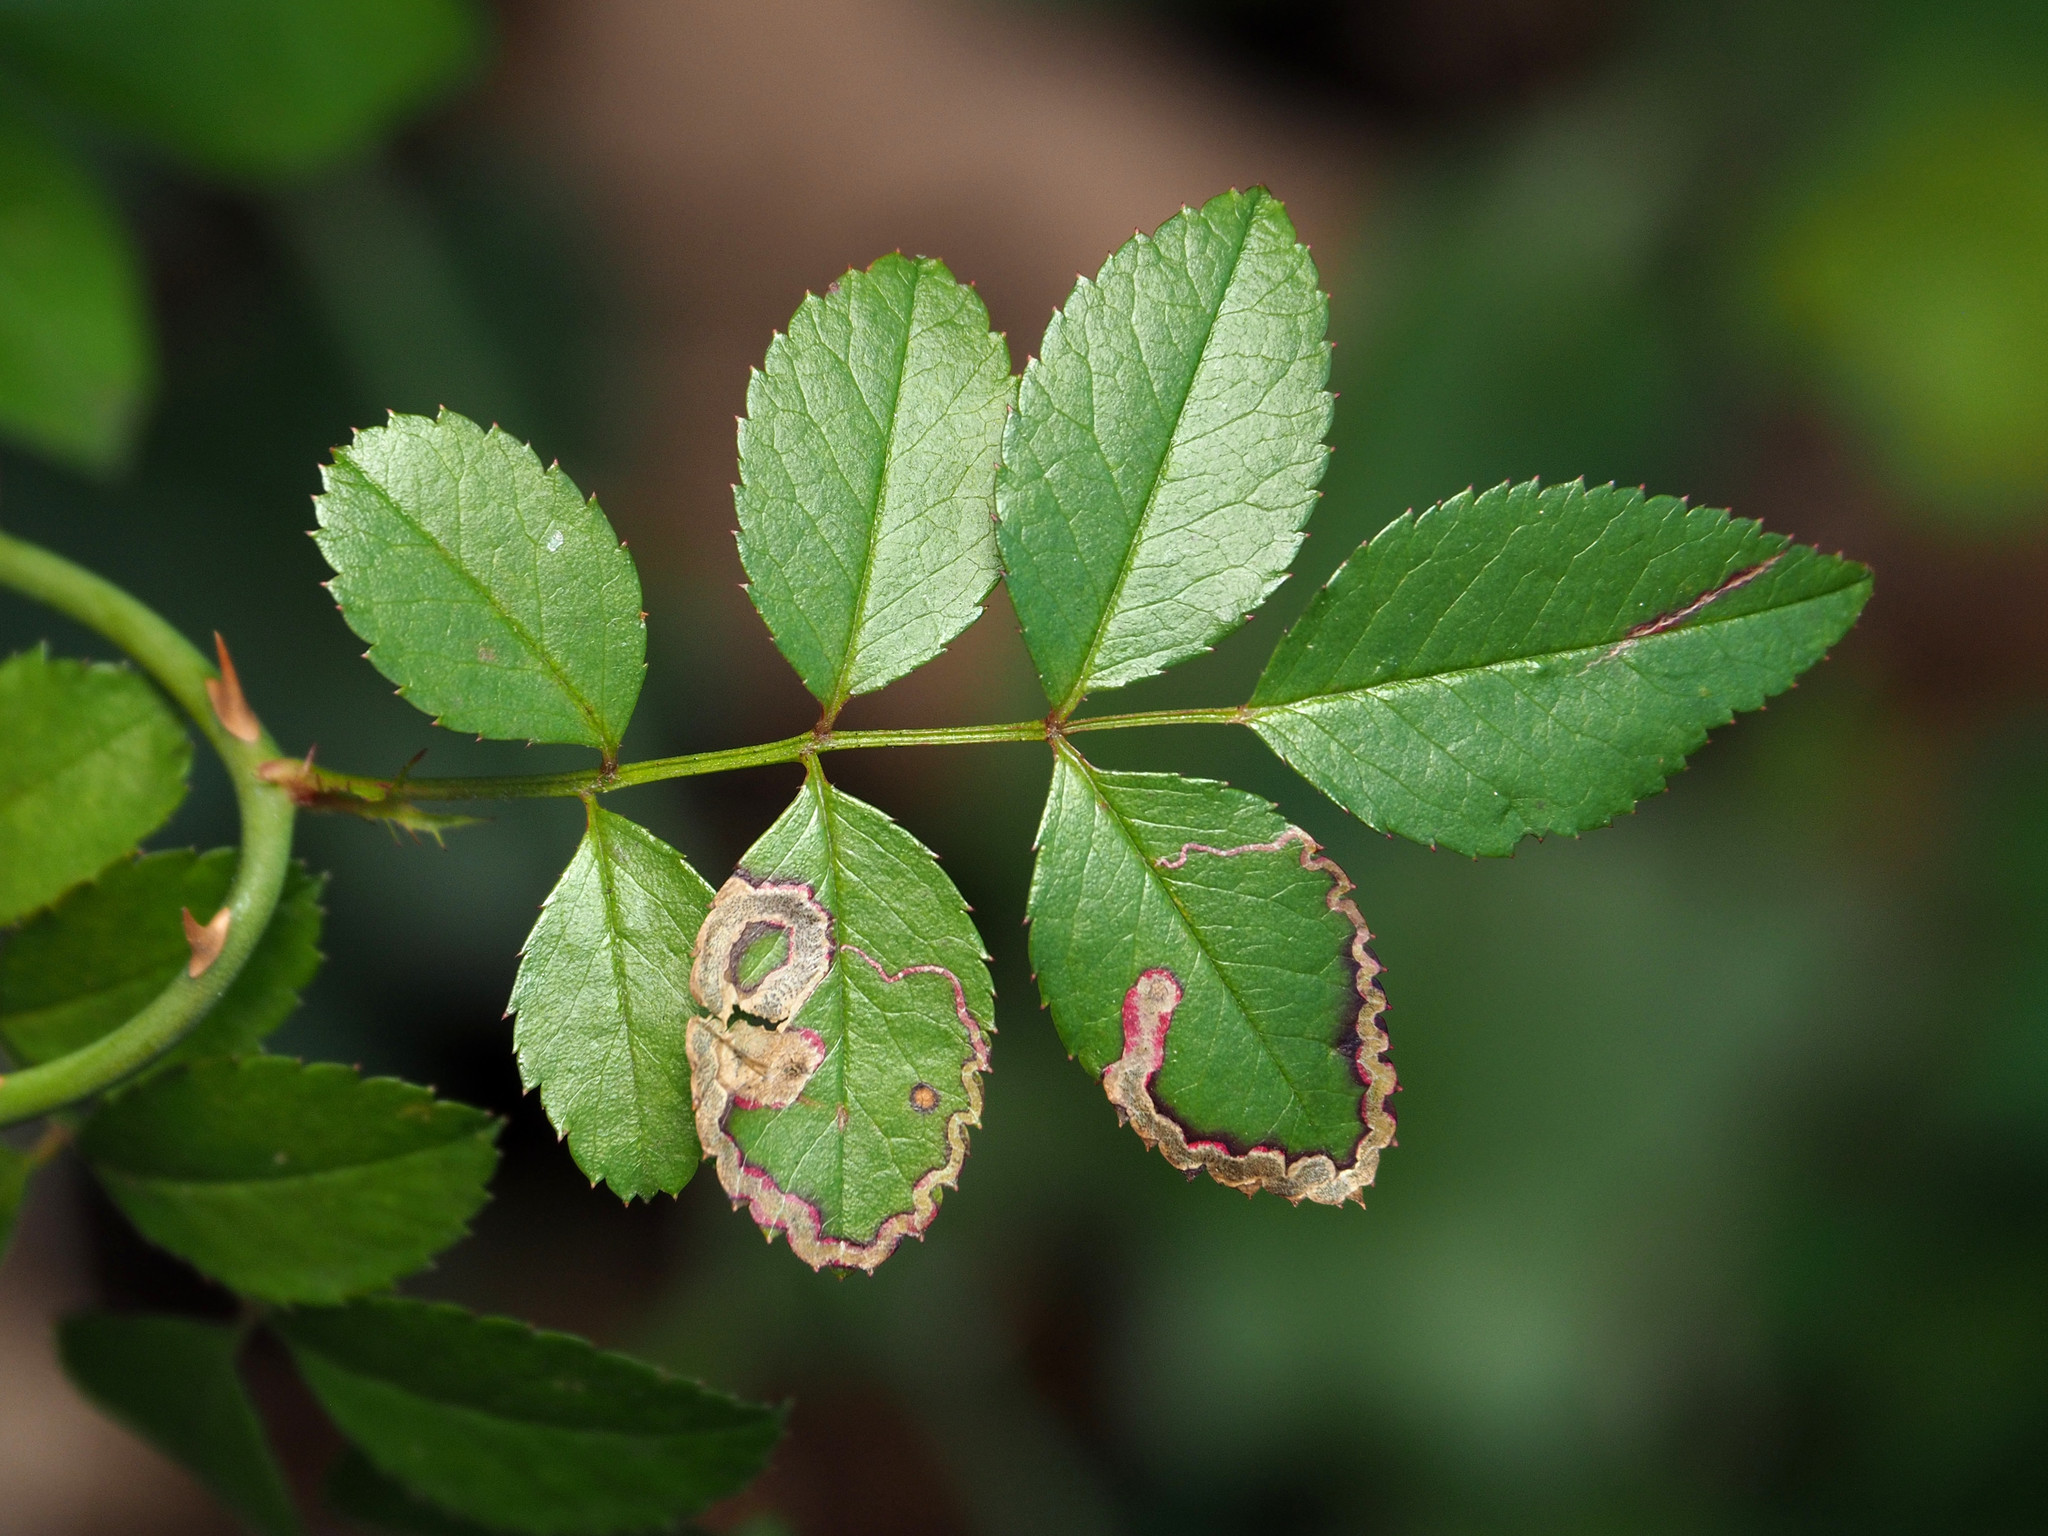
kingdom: Animalia
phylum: Arthropoda
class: Insecta
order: Lepidoptera
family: Nepticulidae
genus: Stigmella
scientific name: Stigmella rosaefoliella
